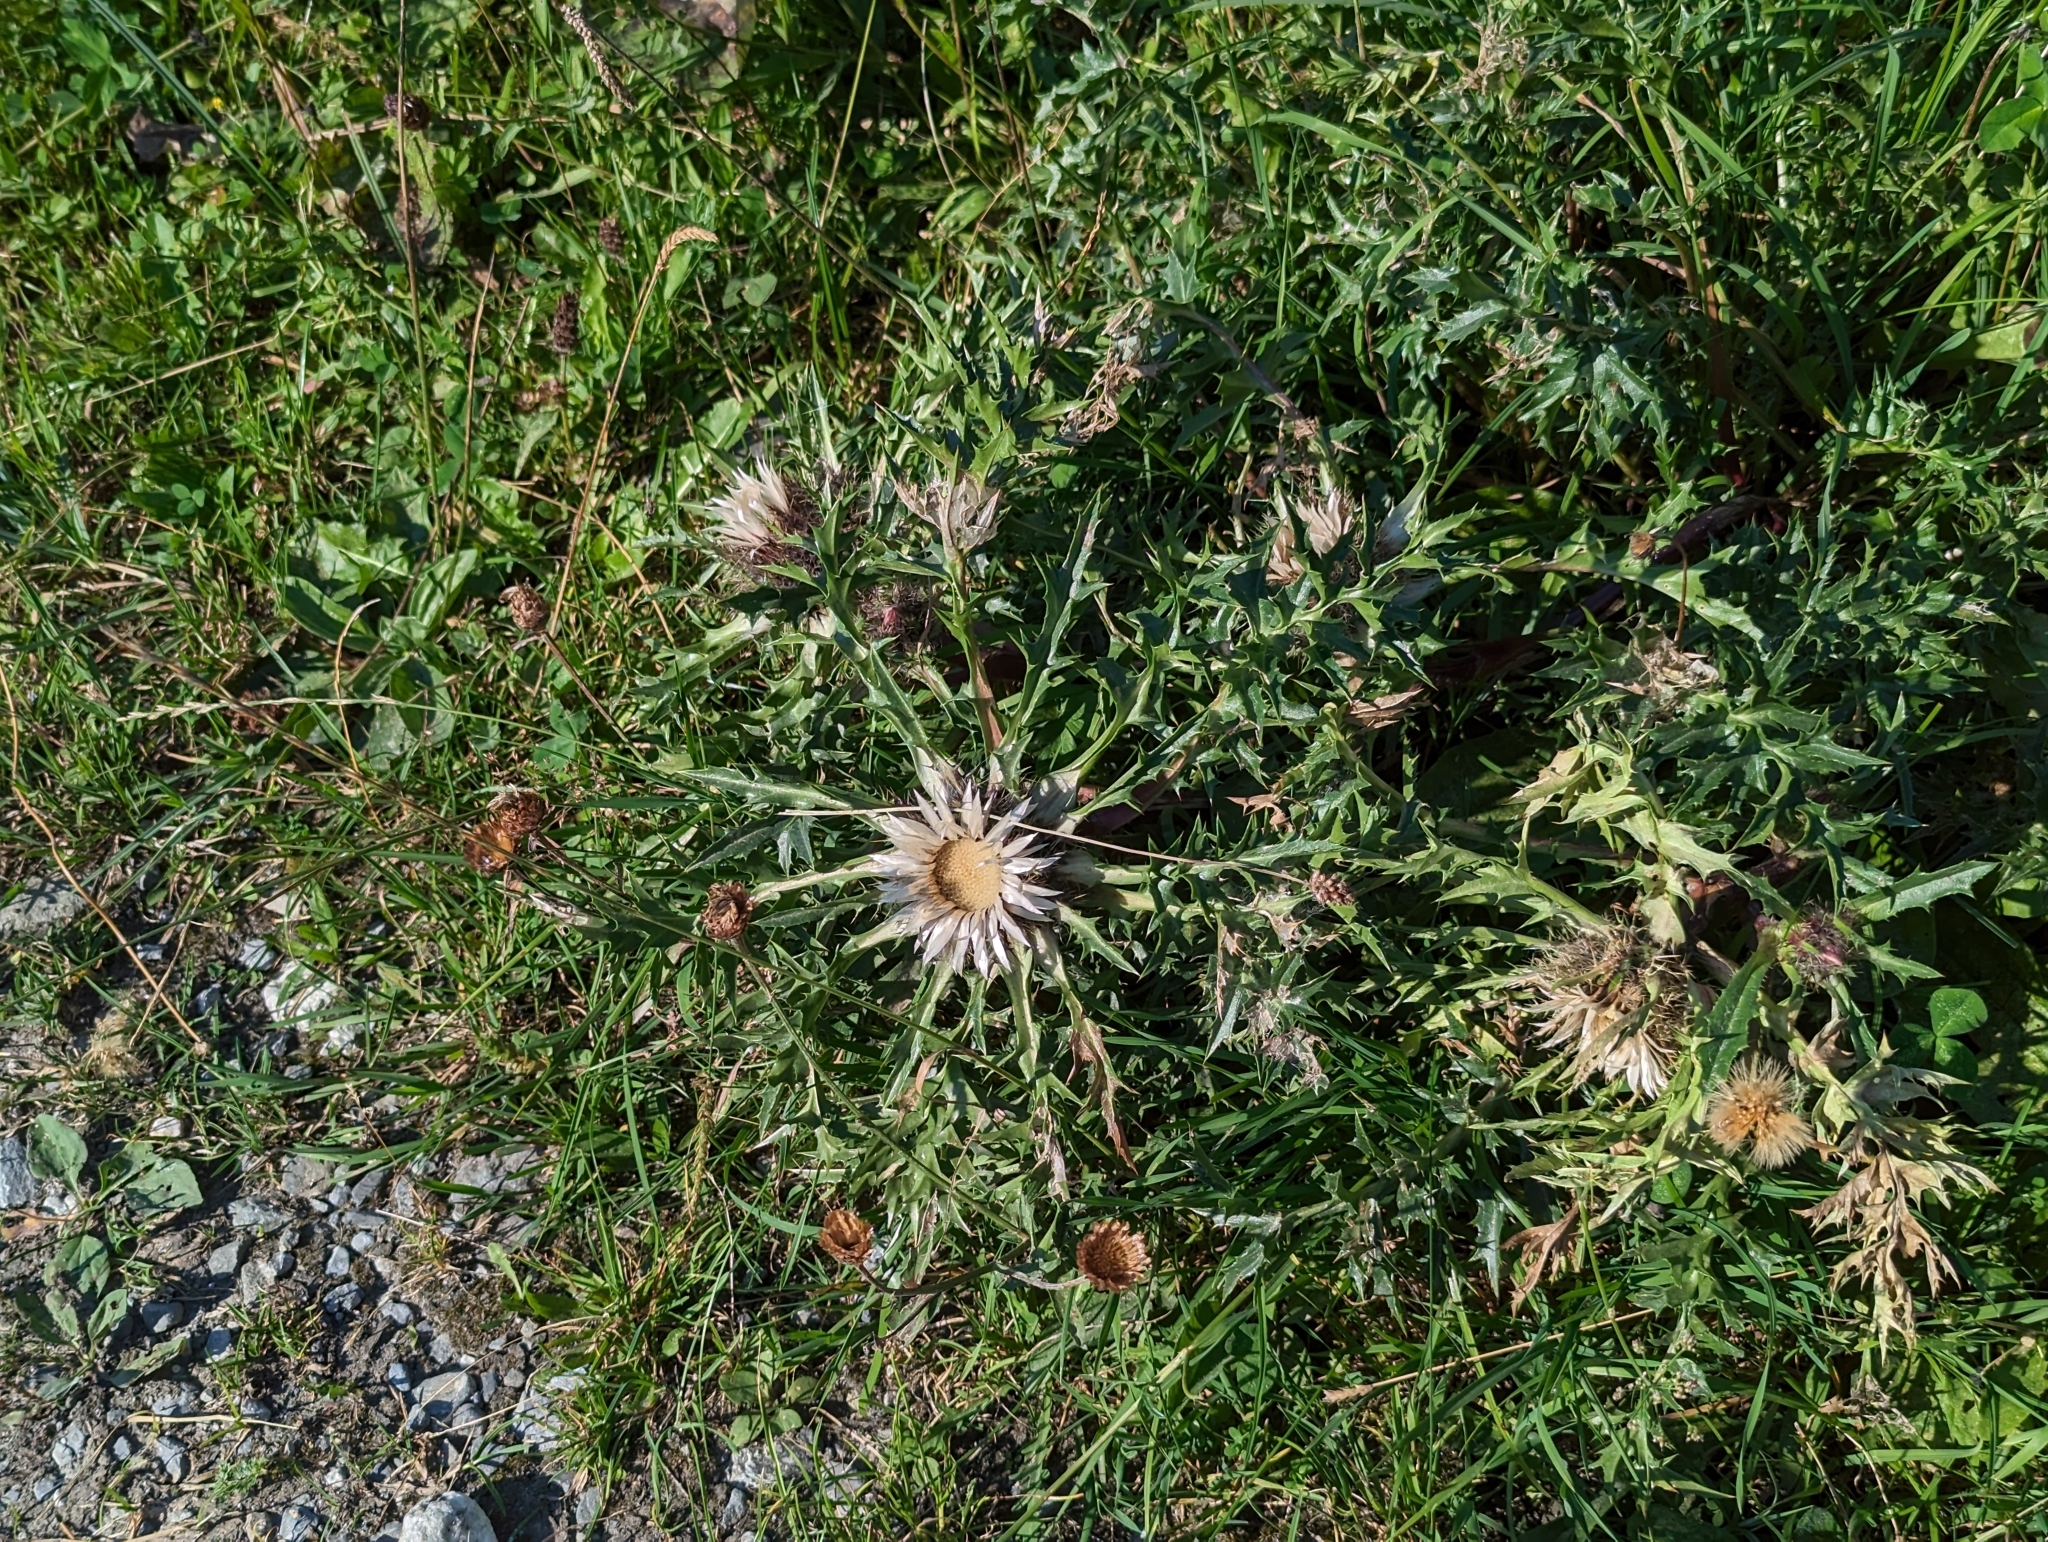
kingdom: Plantae
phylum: Tracheophyta
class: Magnoliopsida
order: Asterales
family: Asteraceae
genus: Carlina
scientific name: Carlina acaulis
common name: Stemless carline thistle
